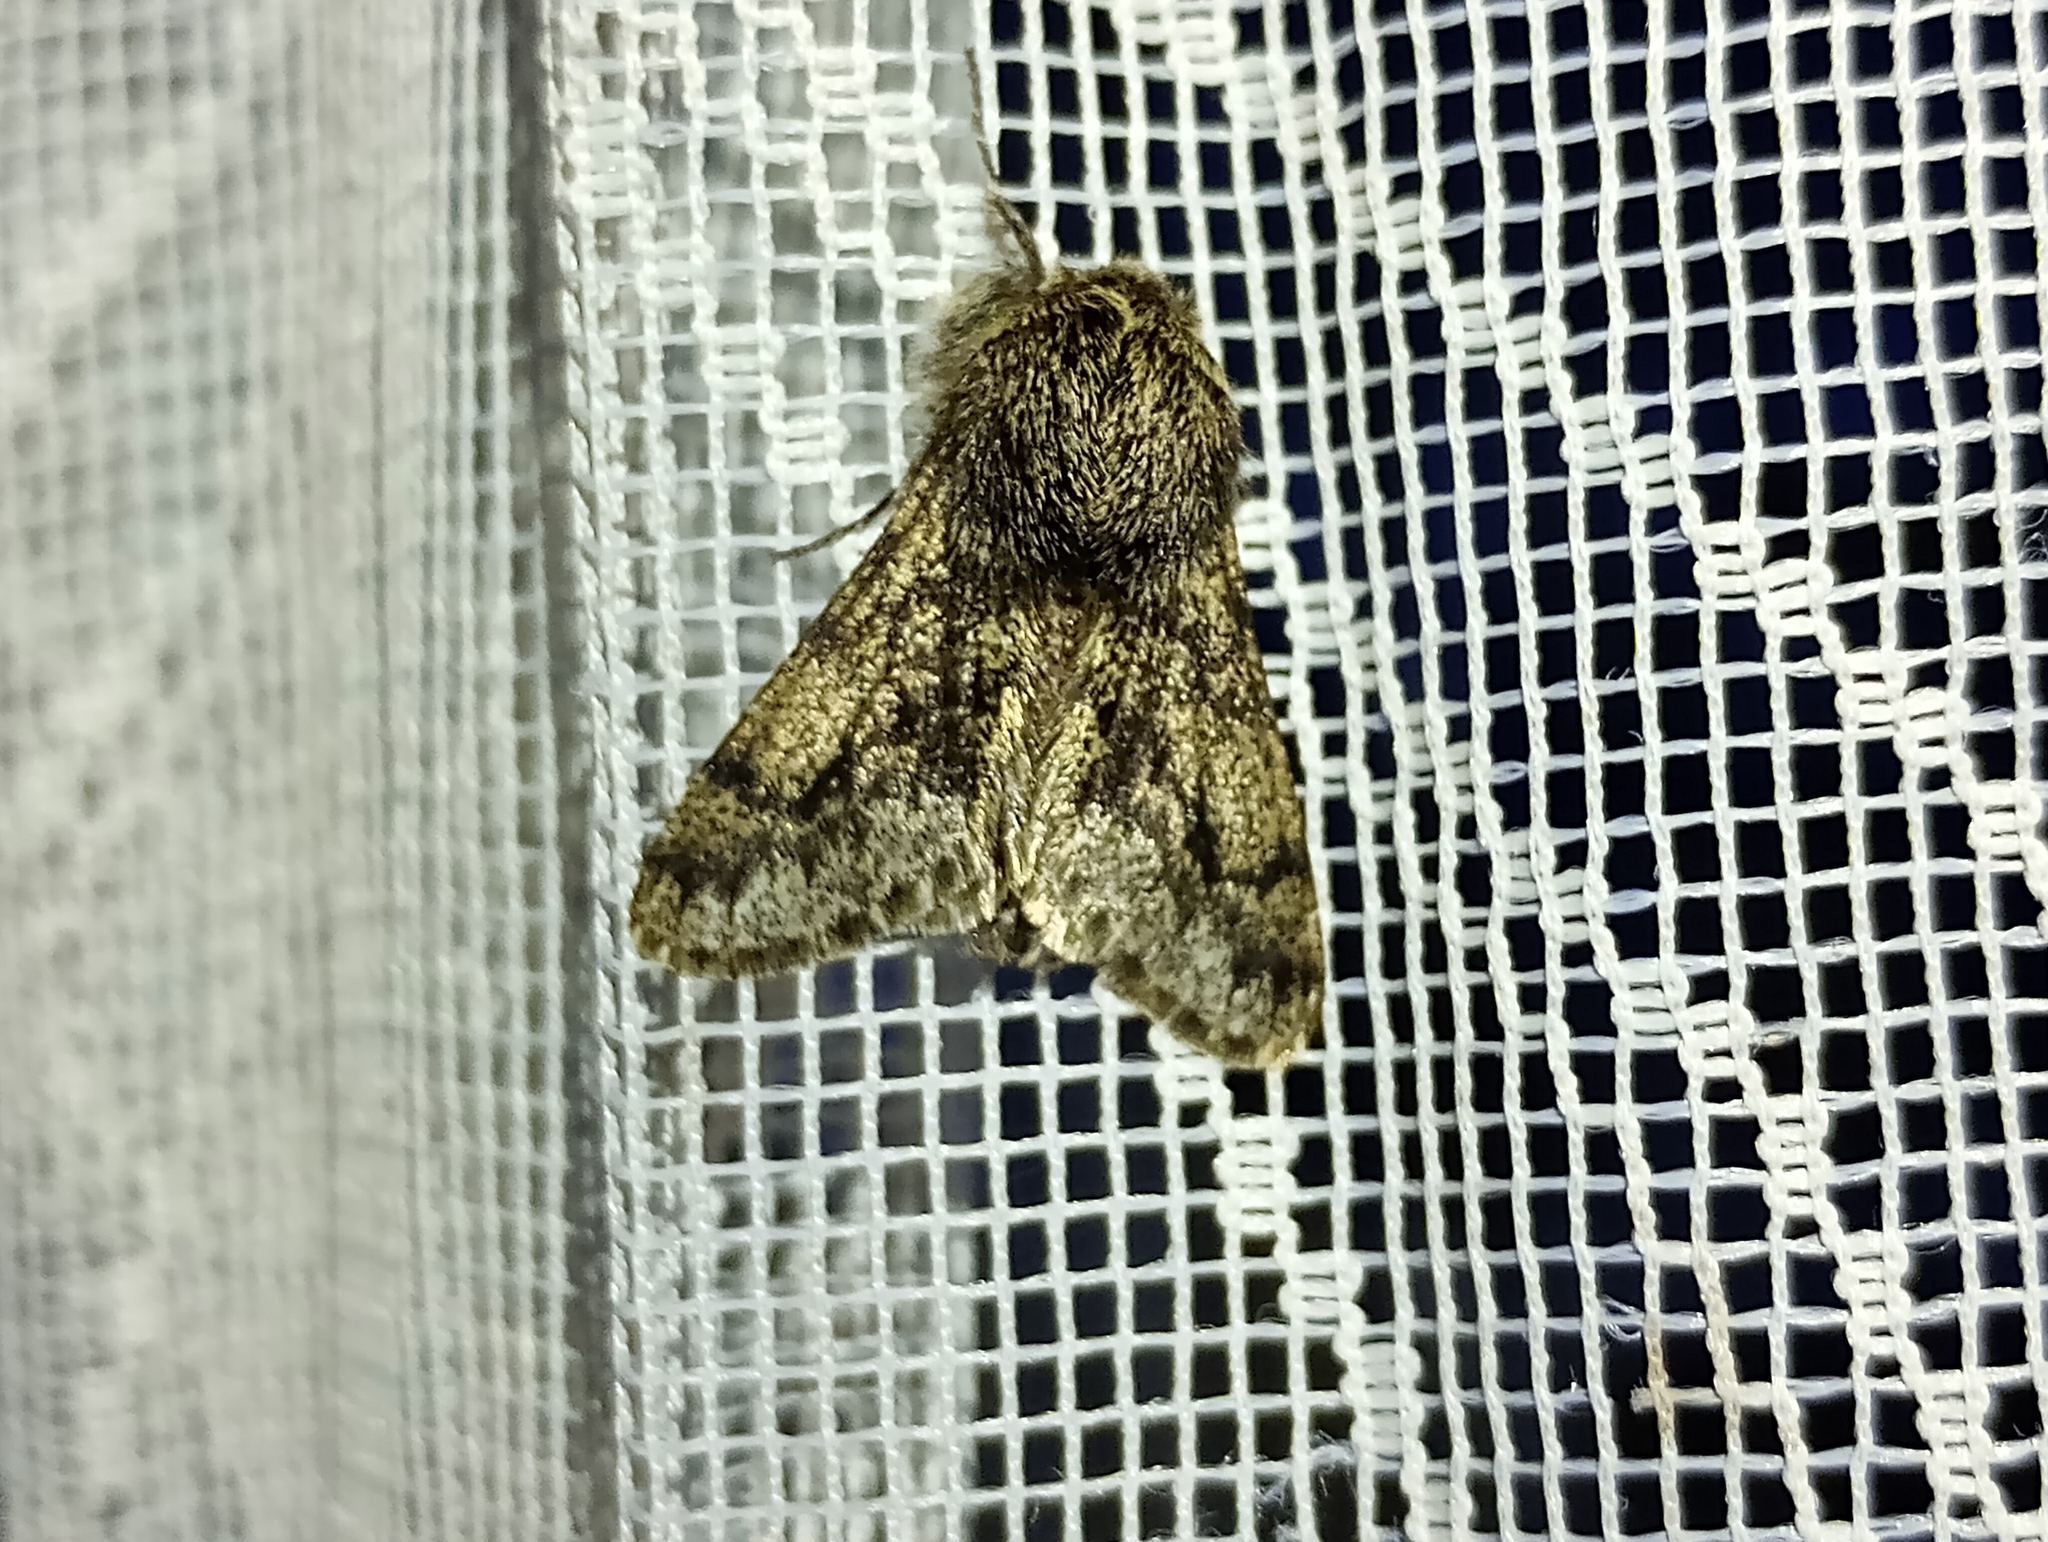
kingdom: Animalia
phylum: Arthropoda
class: Insecta
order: Lepidoptera
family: Geometridae
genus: Apocheima
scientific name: Apocheima hispidaria
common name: Small brindled beauty
